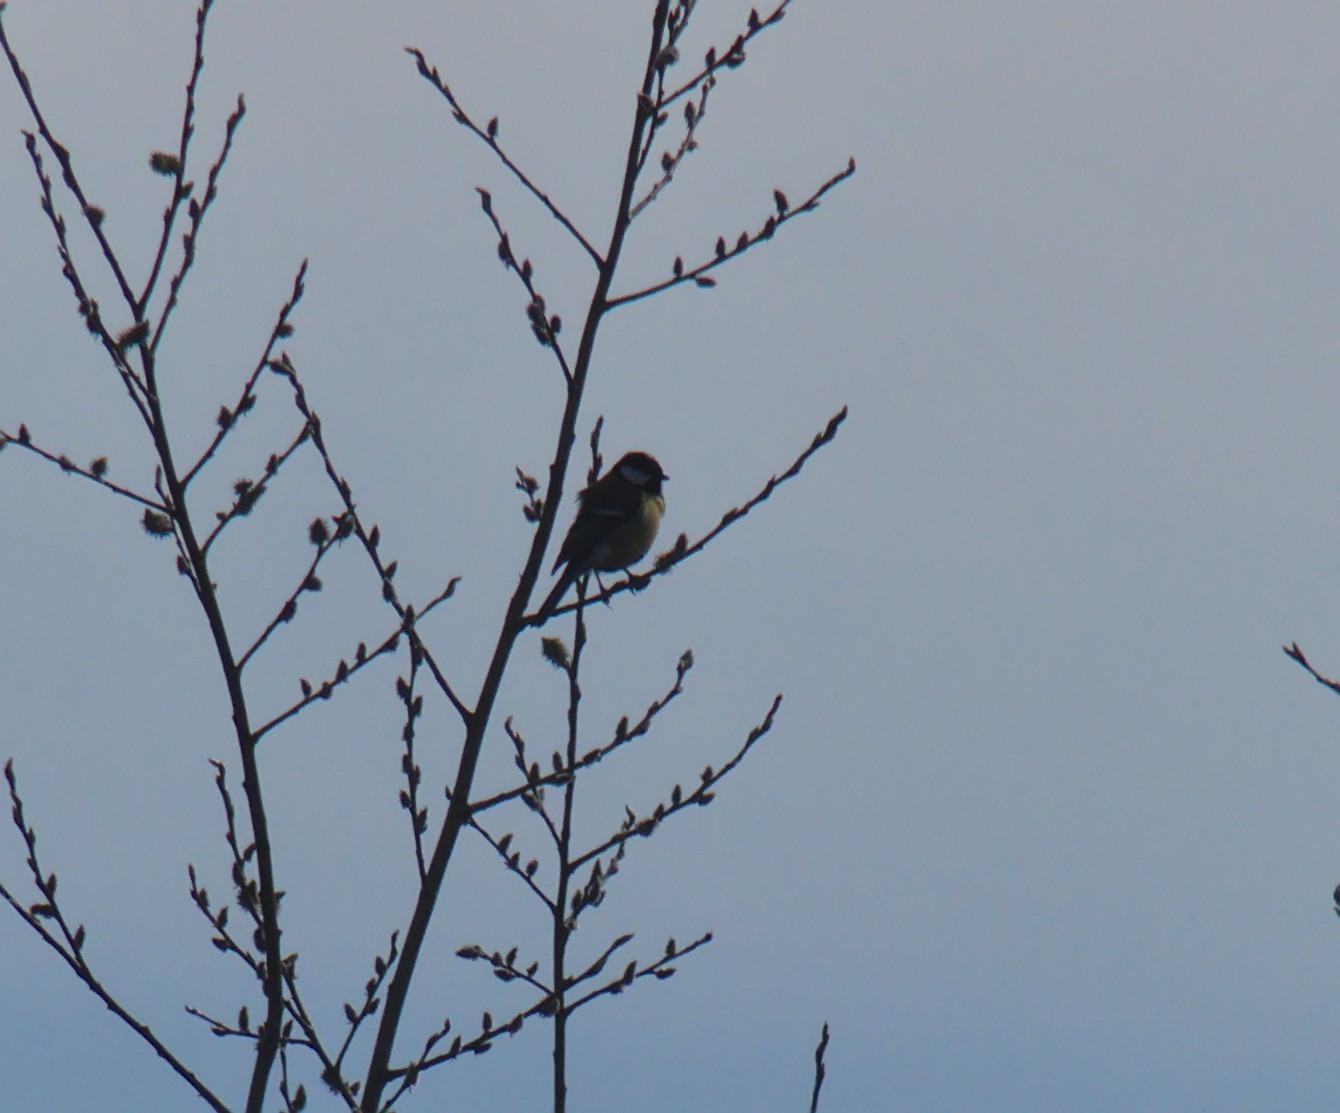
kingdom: Animalia
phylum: Chordata
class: Aves
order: Passeriformes
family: Paridae
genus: Parus
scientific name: Parus major
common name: Great tit
